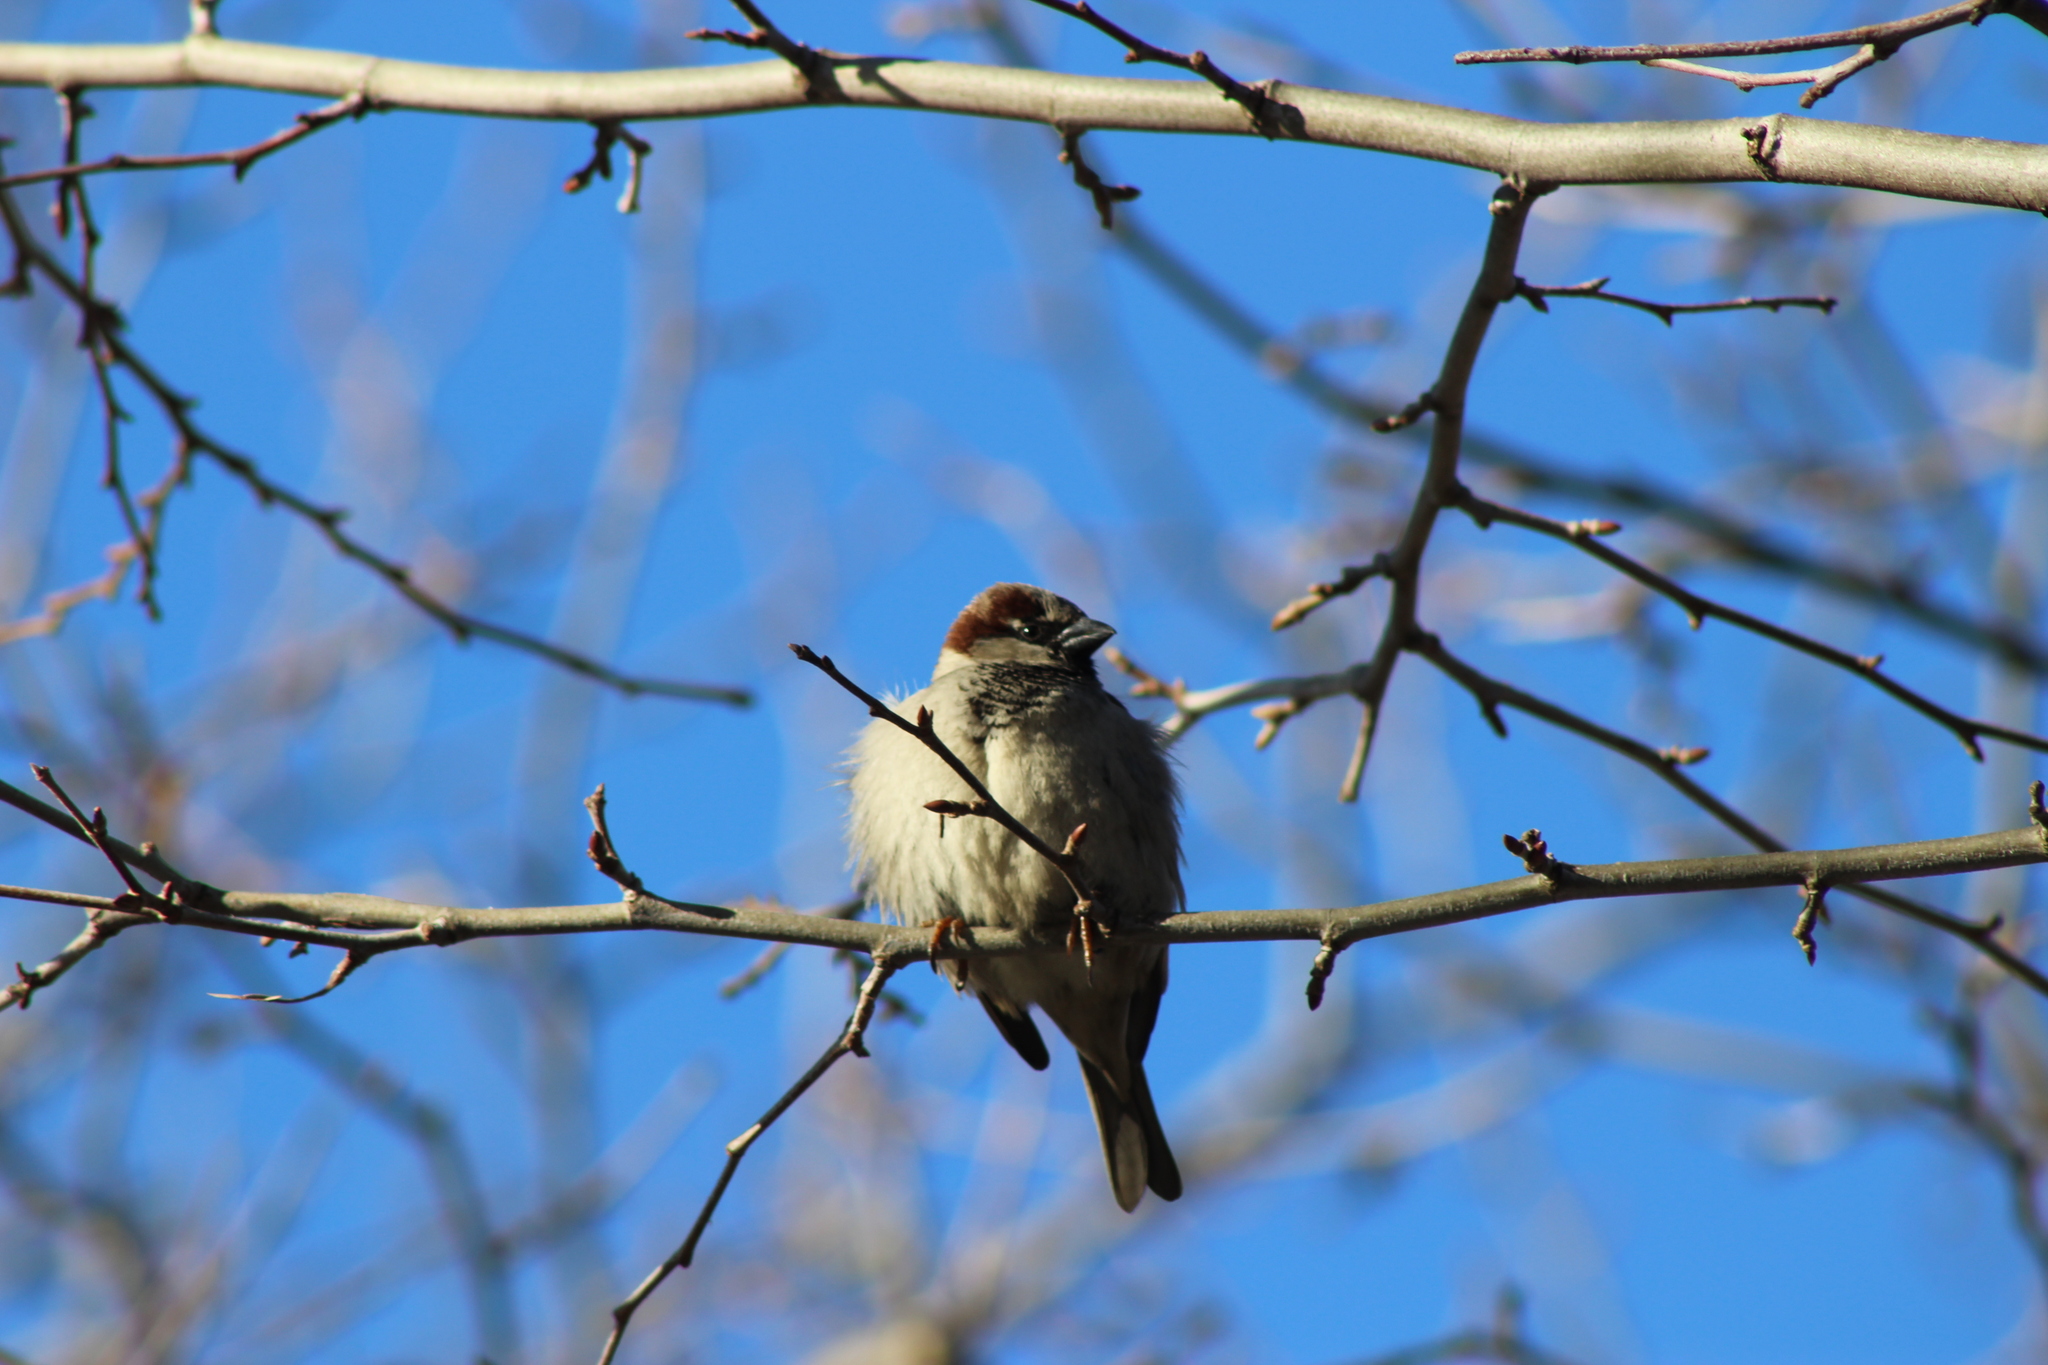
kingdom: Animalia
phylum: Chordata
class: Aves
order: Passeriformes
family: Passeridae
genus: Passer
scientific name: Passer domesticus
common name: House sparrow
